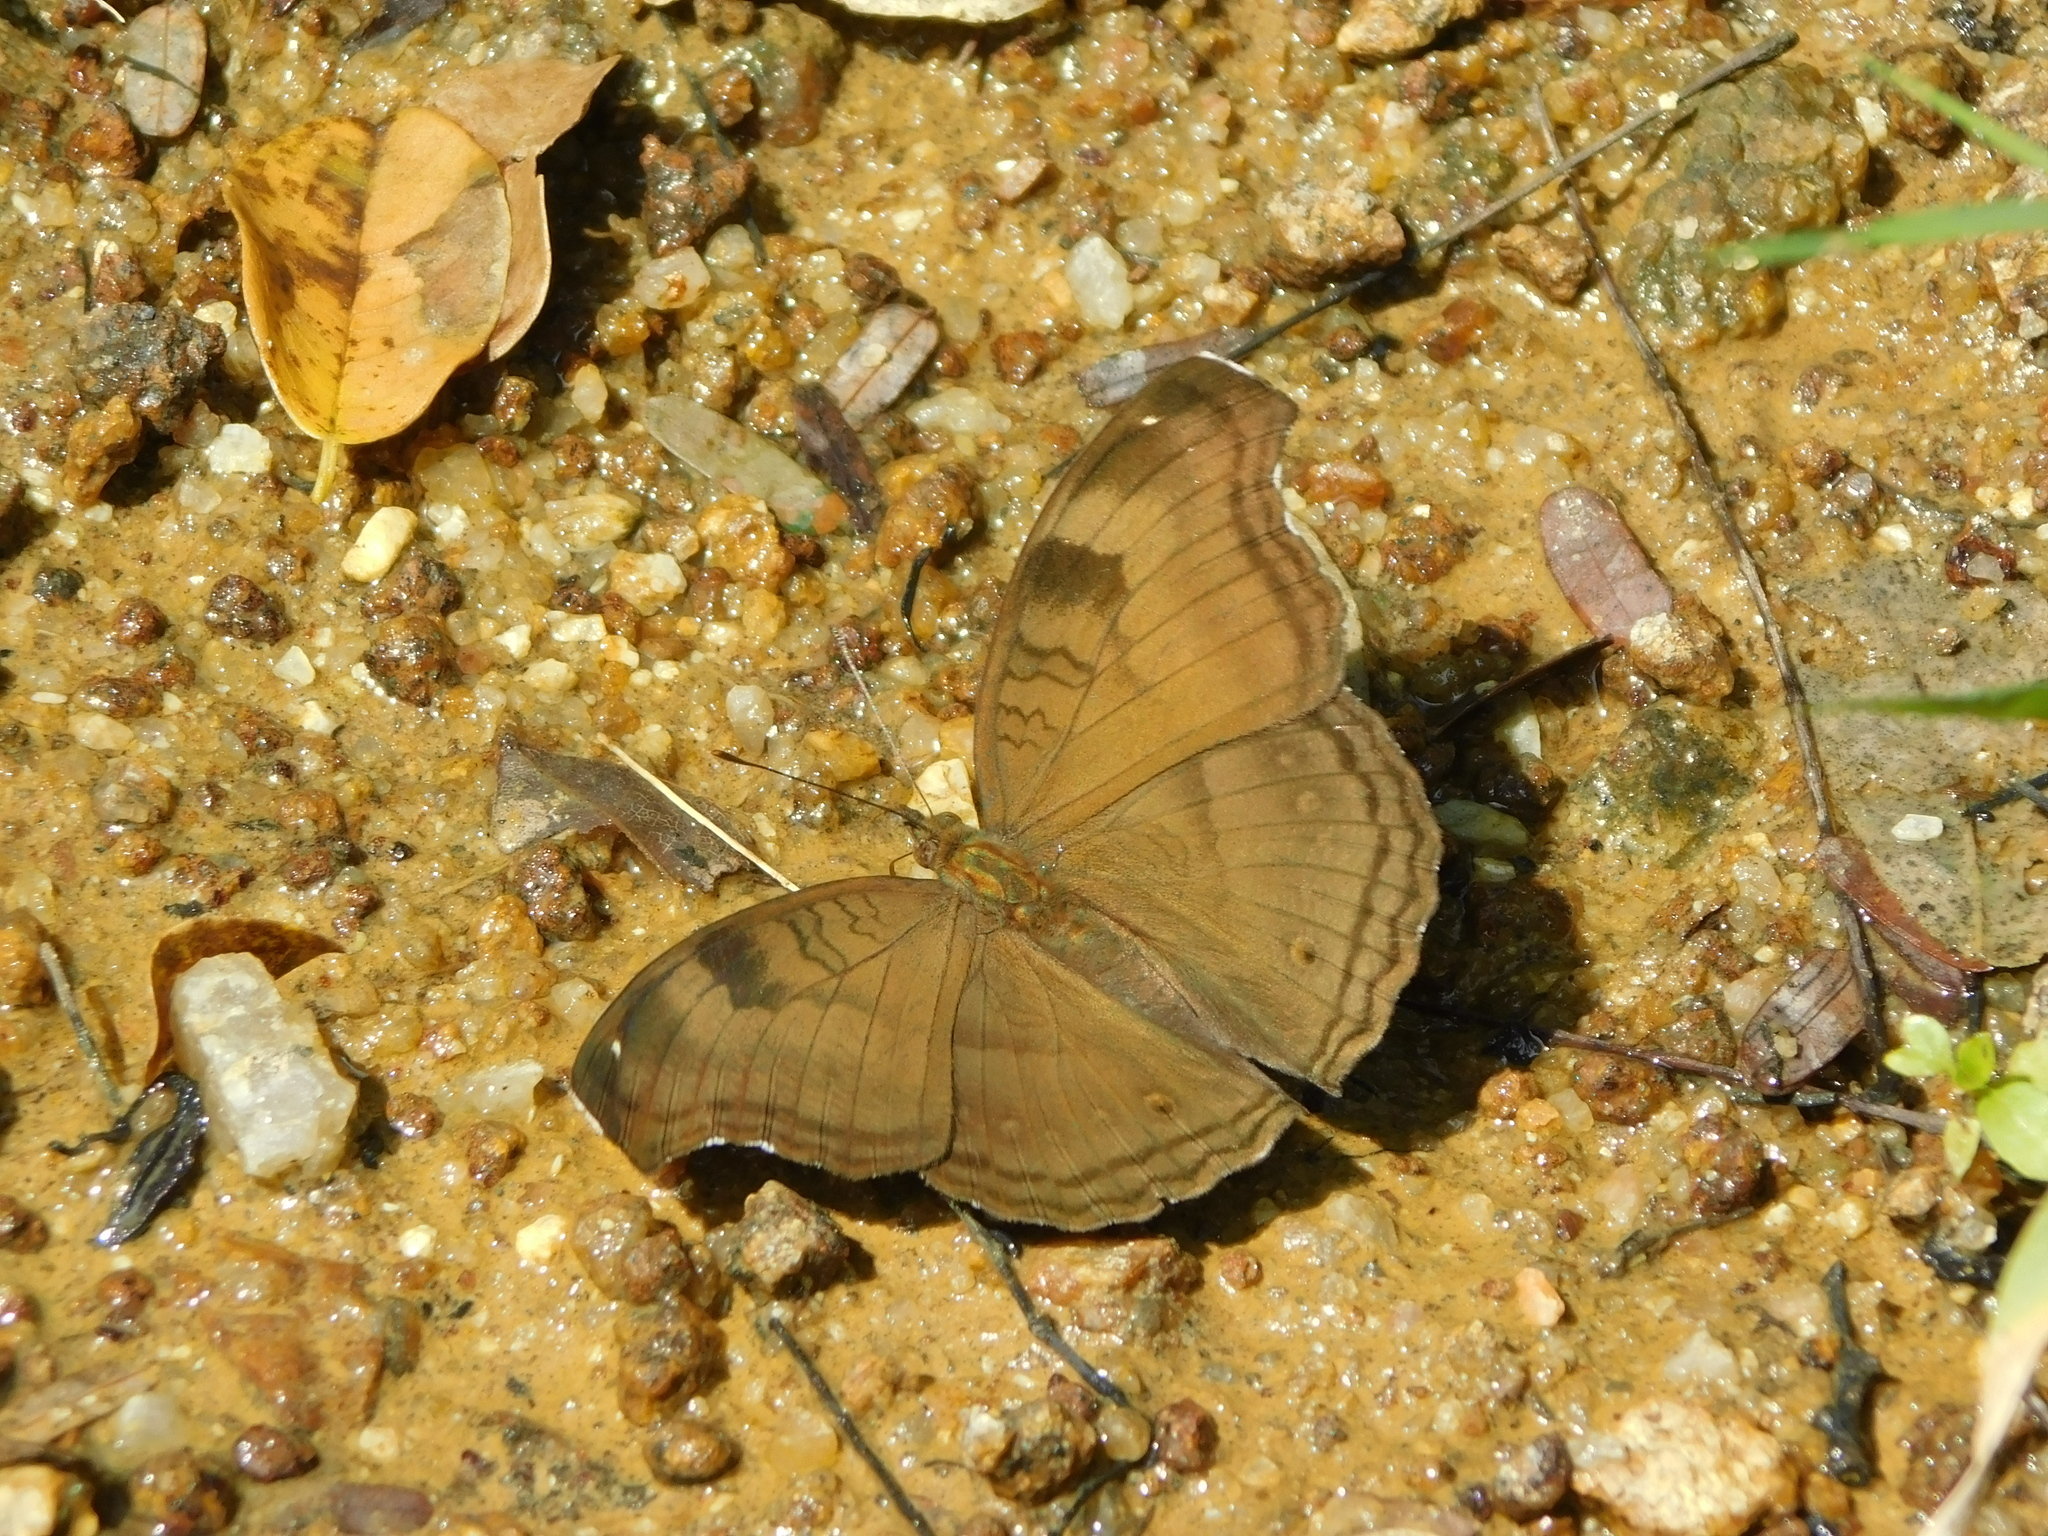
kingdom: Animalia
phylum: Arthropoda
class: Insecta
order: Lepidoptera
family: Nymphalidae
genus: Junonia
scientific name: Junonia iphita
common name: Chocolate pansy
